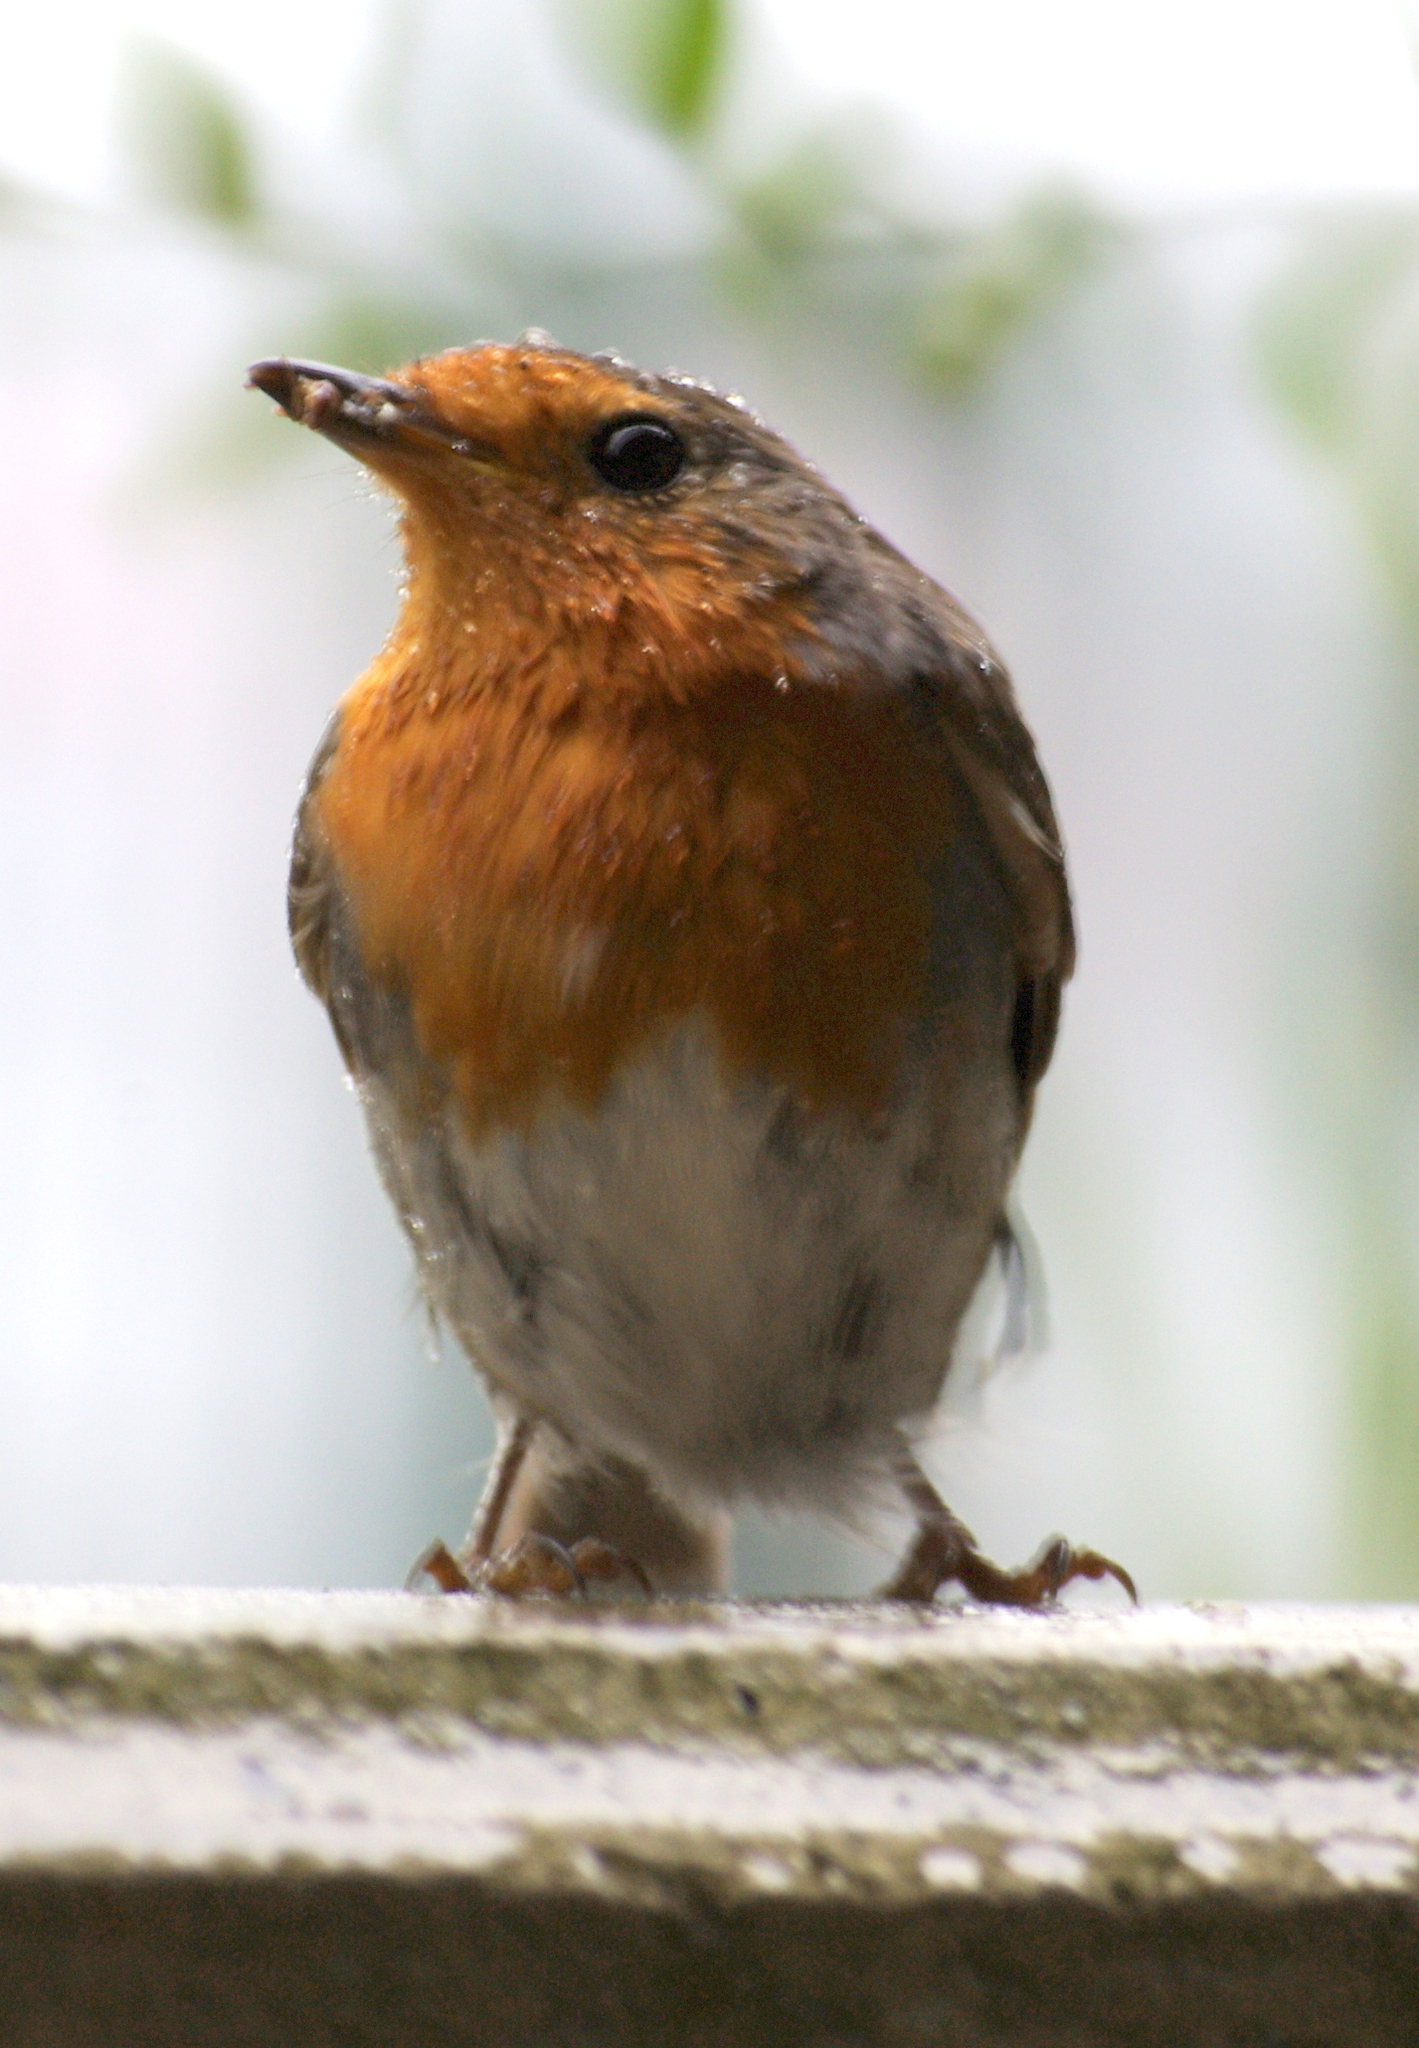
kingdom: Animalia
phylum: Chordata
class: Aves
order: Passeriformes
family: Muscicapidae
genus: Erithacus
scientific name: Erithacus rubecula
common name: European robin
